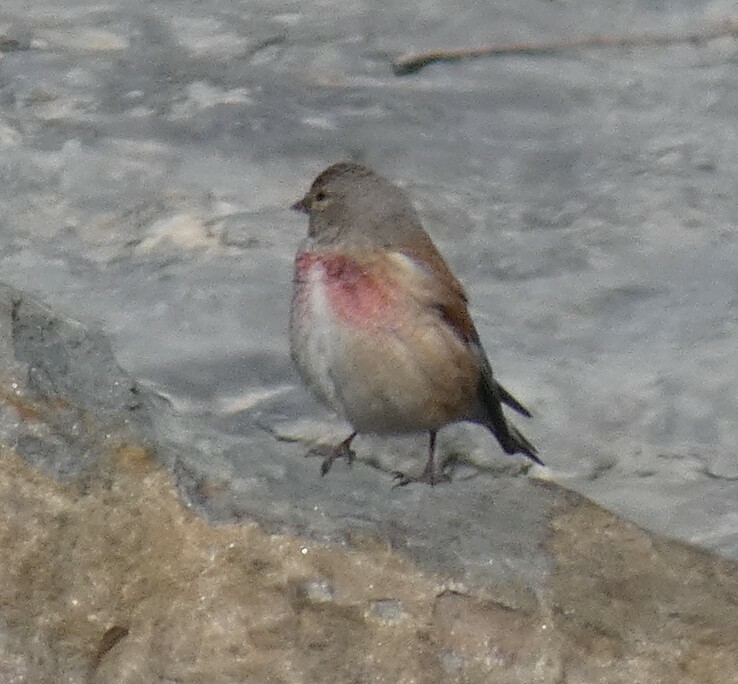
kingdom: Animalia
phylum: Chordata
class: Aves
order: Passeriformes
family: Fringillidae
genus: Linaria
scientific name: Linaria cannabina
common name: Common linnet
